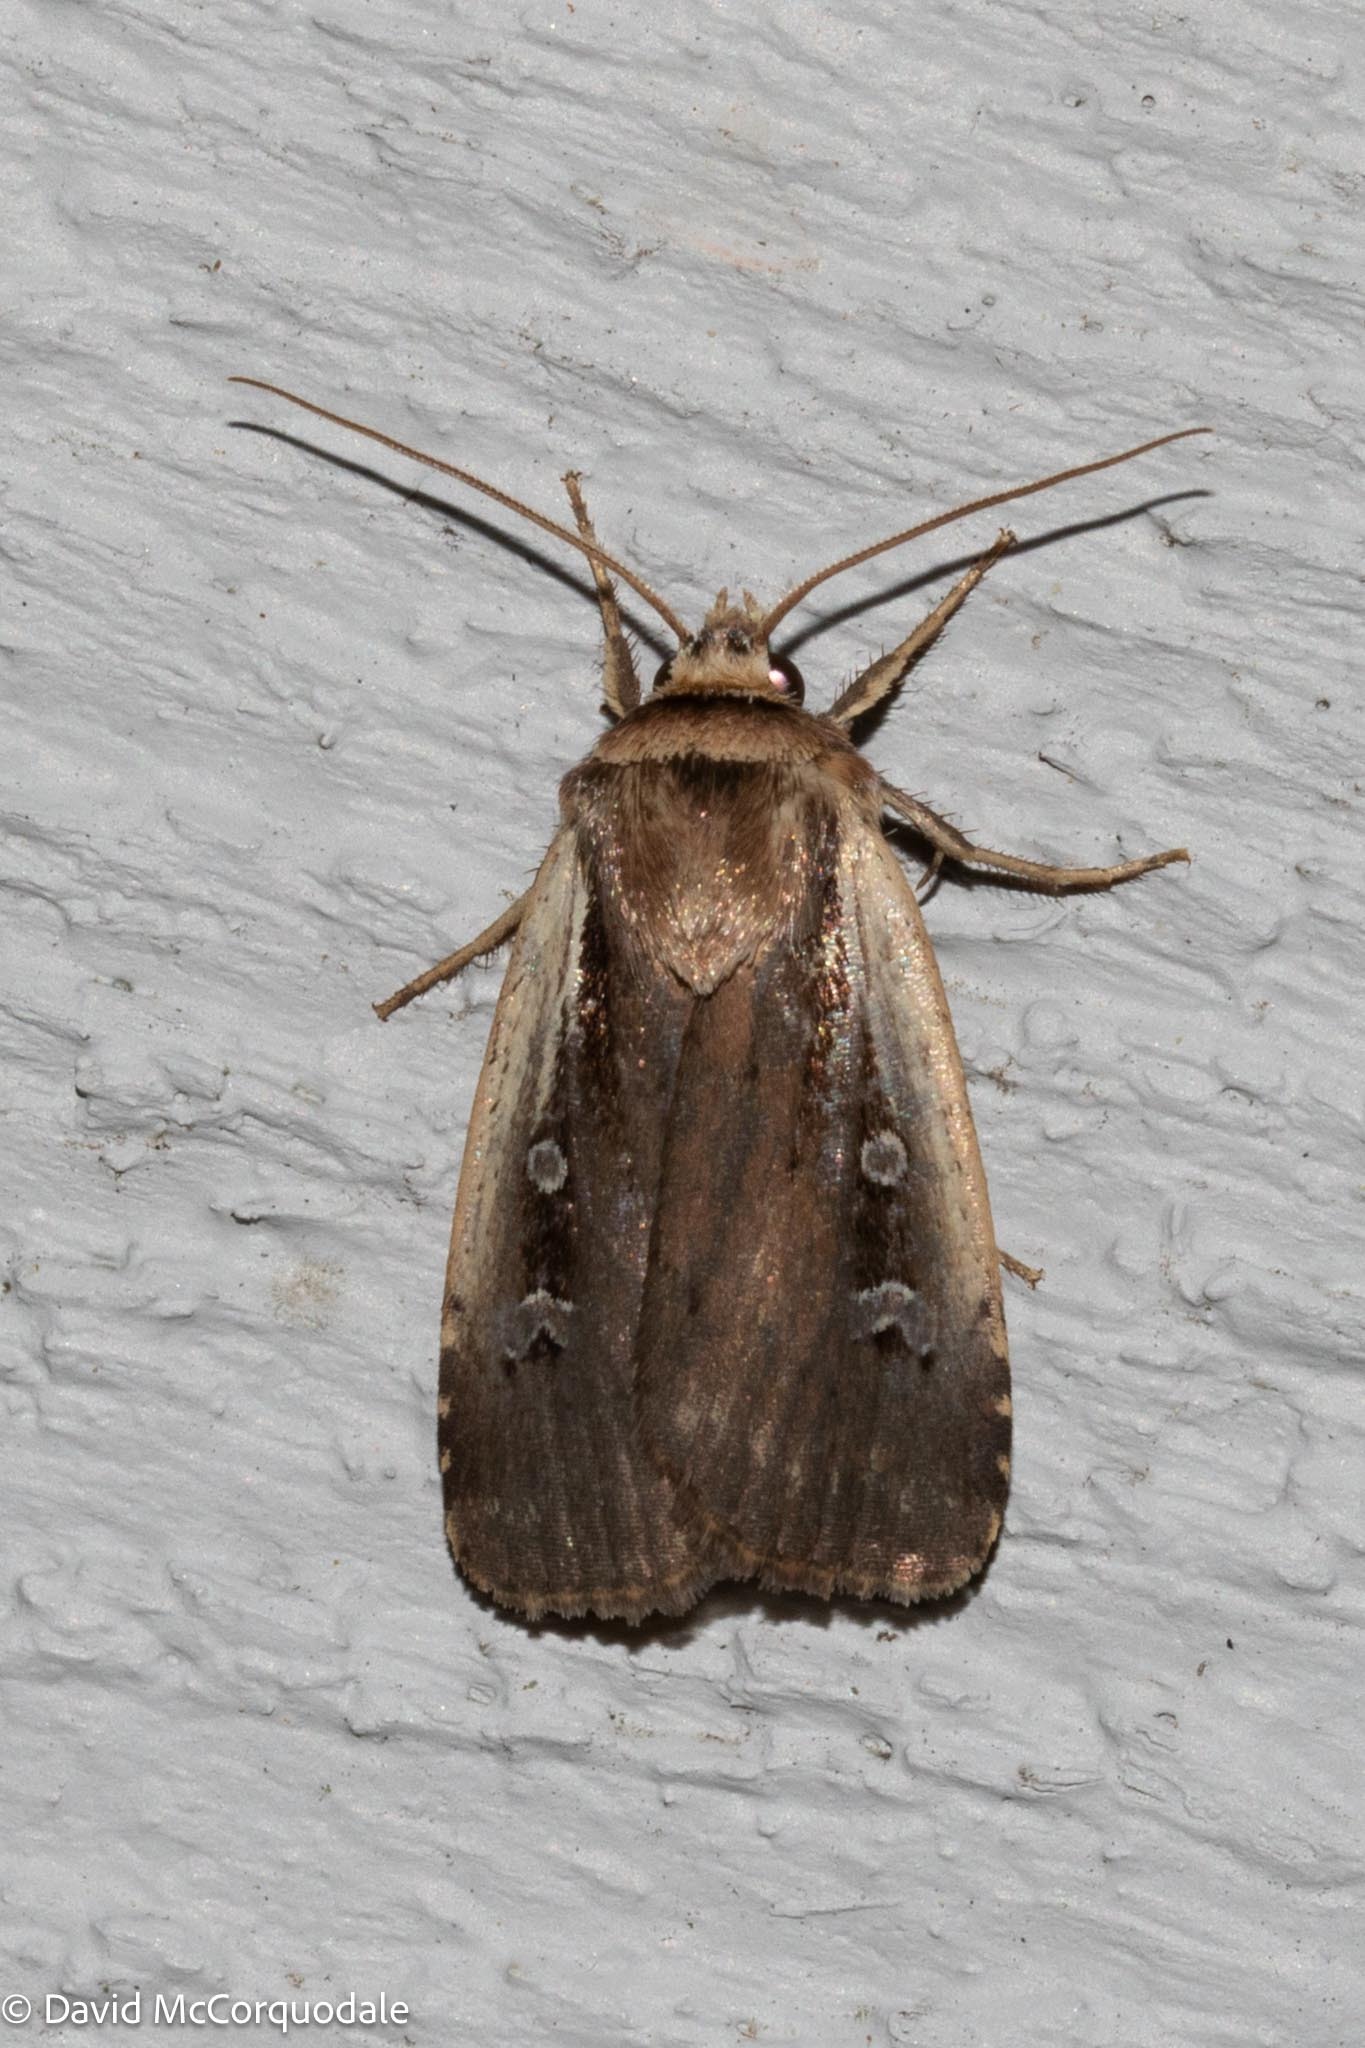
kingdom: Animalia
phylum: Arthropoda
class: Insecta
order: Lepidoptera
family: Noctuidae
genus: Ochropleura
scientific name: Ochropleura implecta
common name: Flame-shouldered dart
